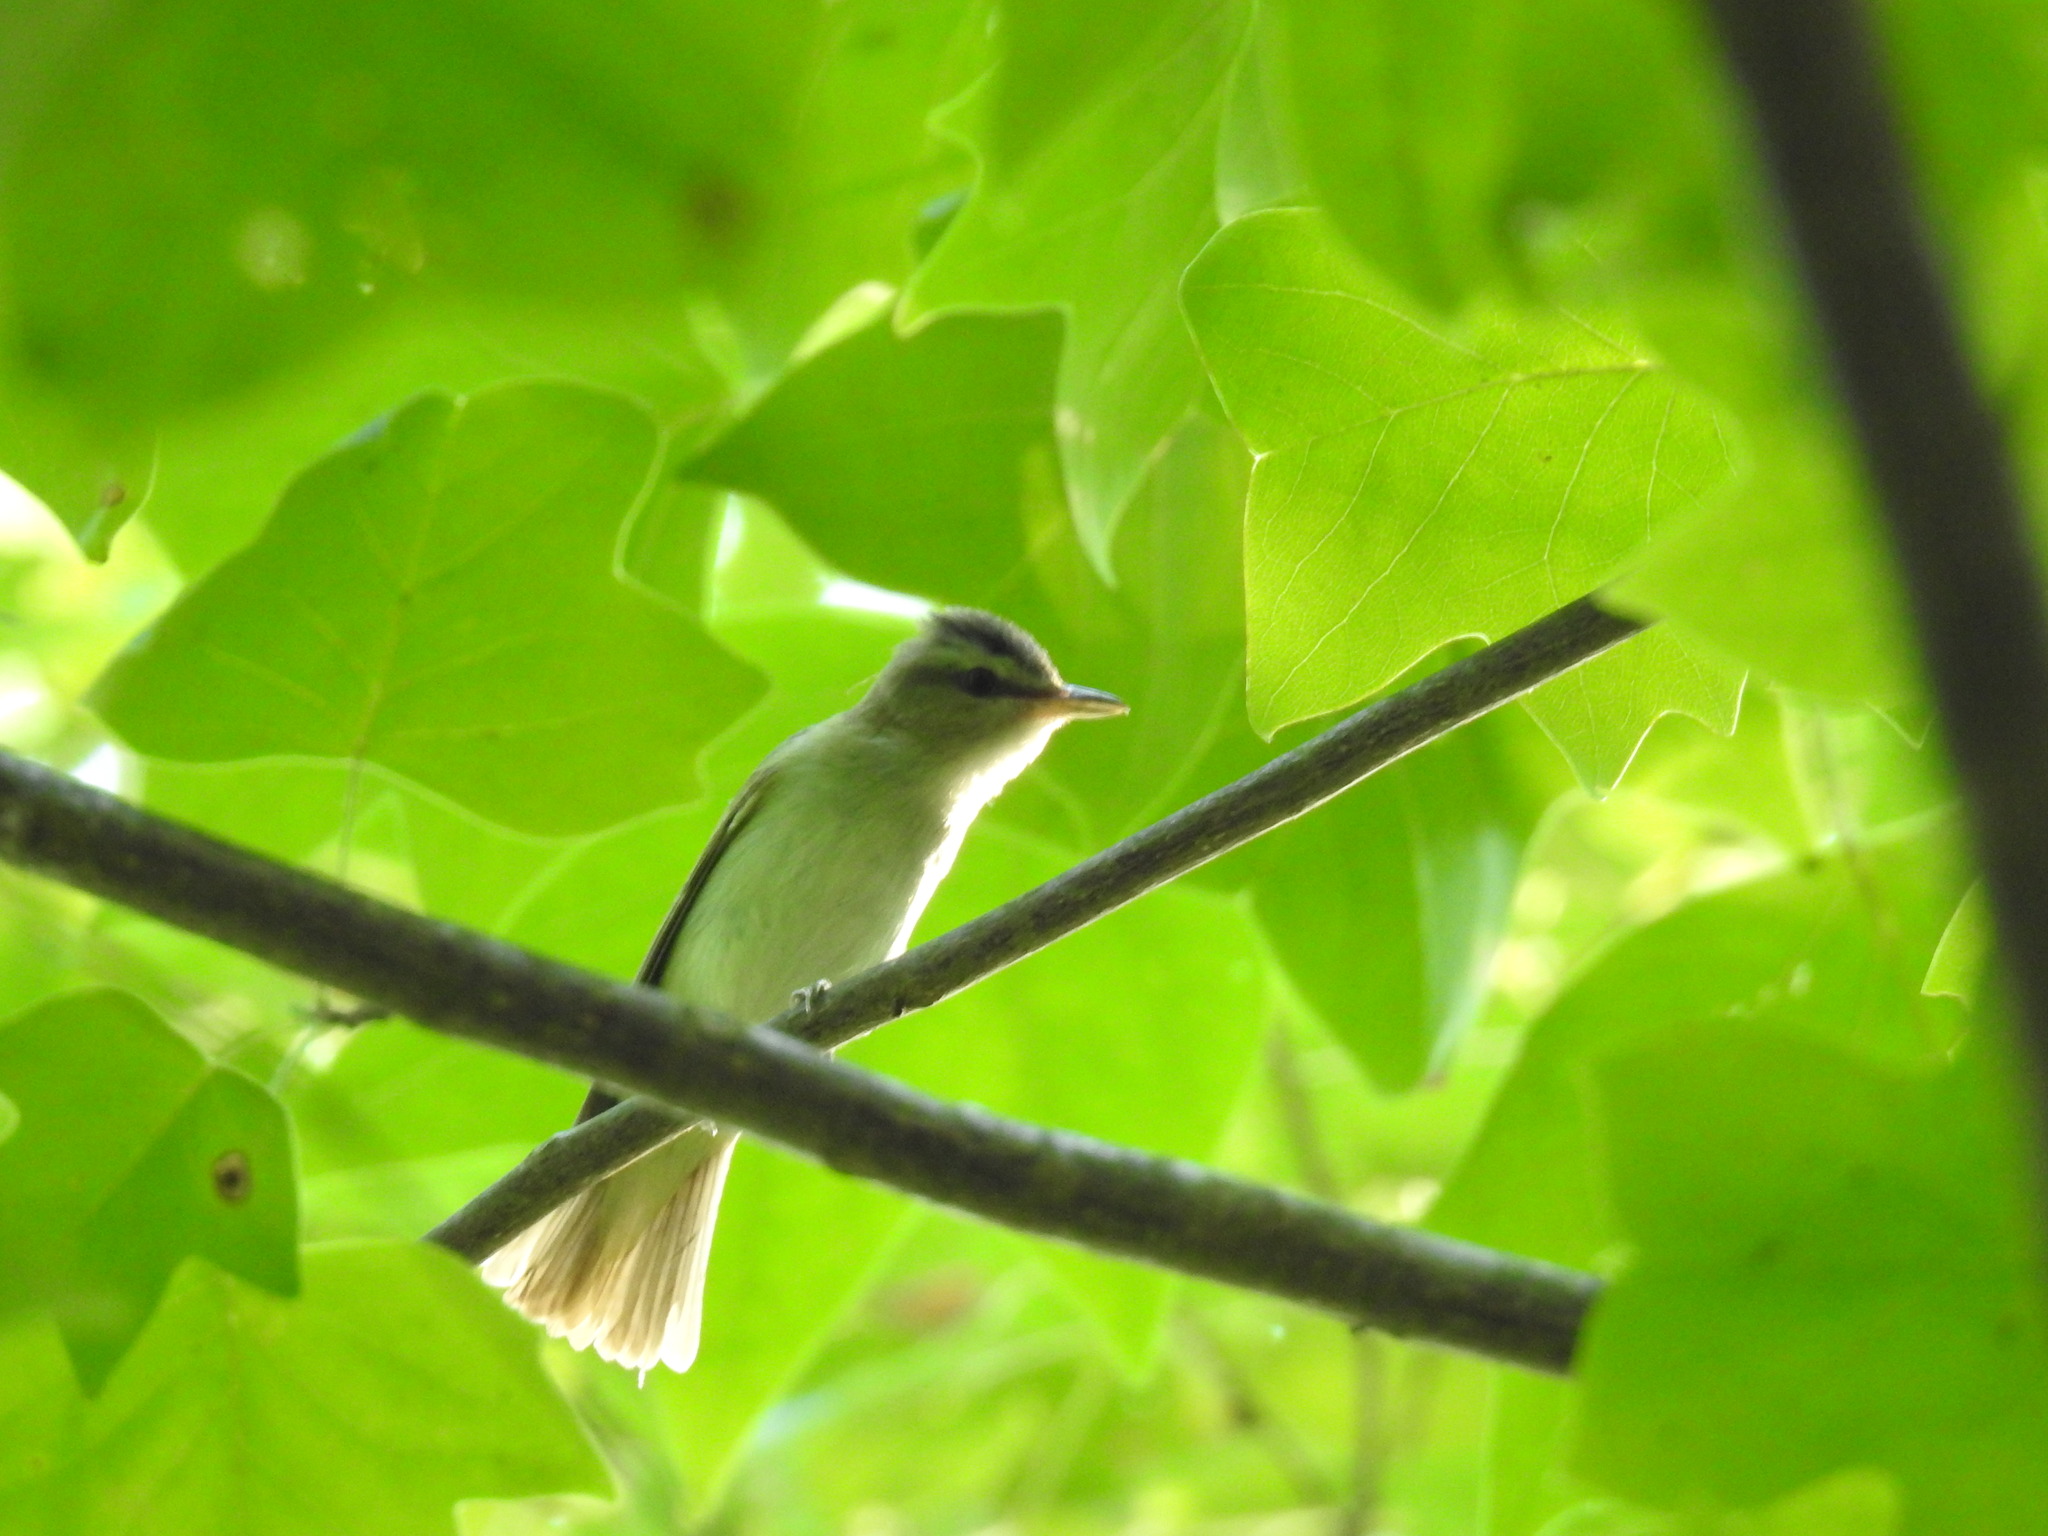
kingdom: Animalia
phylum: Chordata
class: Aves
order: Passeriformes
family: Vireonidae
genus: Vireo
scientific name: Vireo olivaceus
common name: Red-eyed vireo
